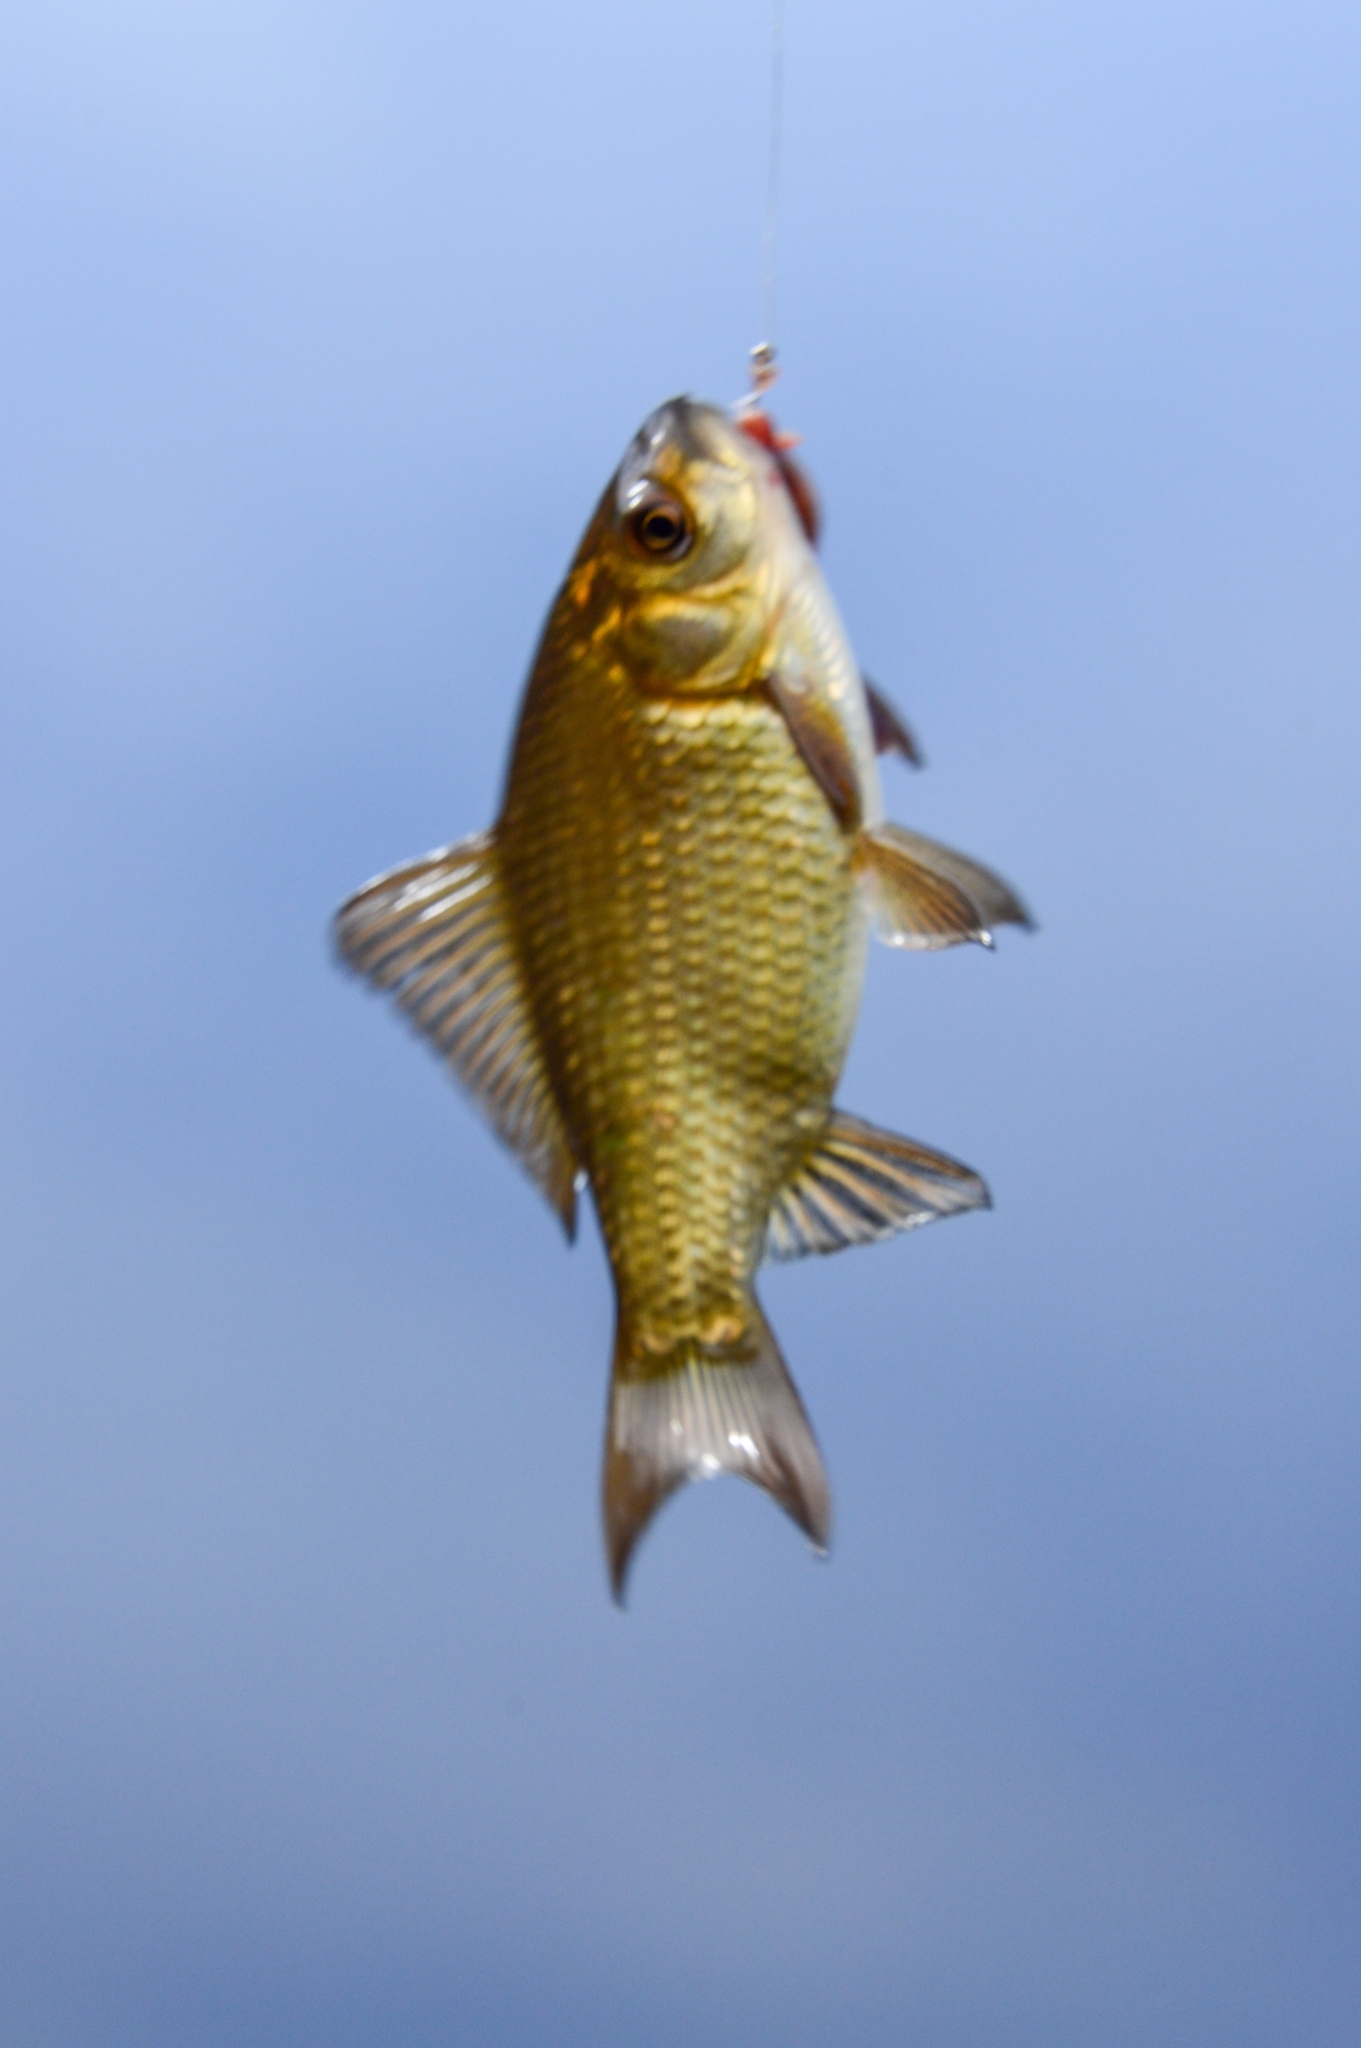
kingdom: Animalia
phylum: Chordata
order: Cypriniformes
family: Cyprinidae
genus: Carassius
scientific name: Carassius gibelio
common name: Prussian carp
